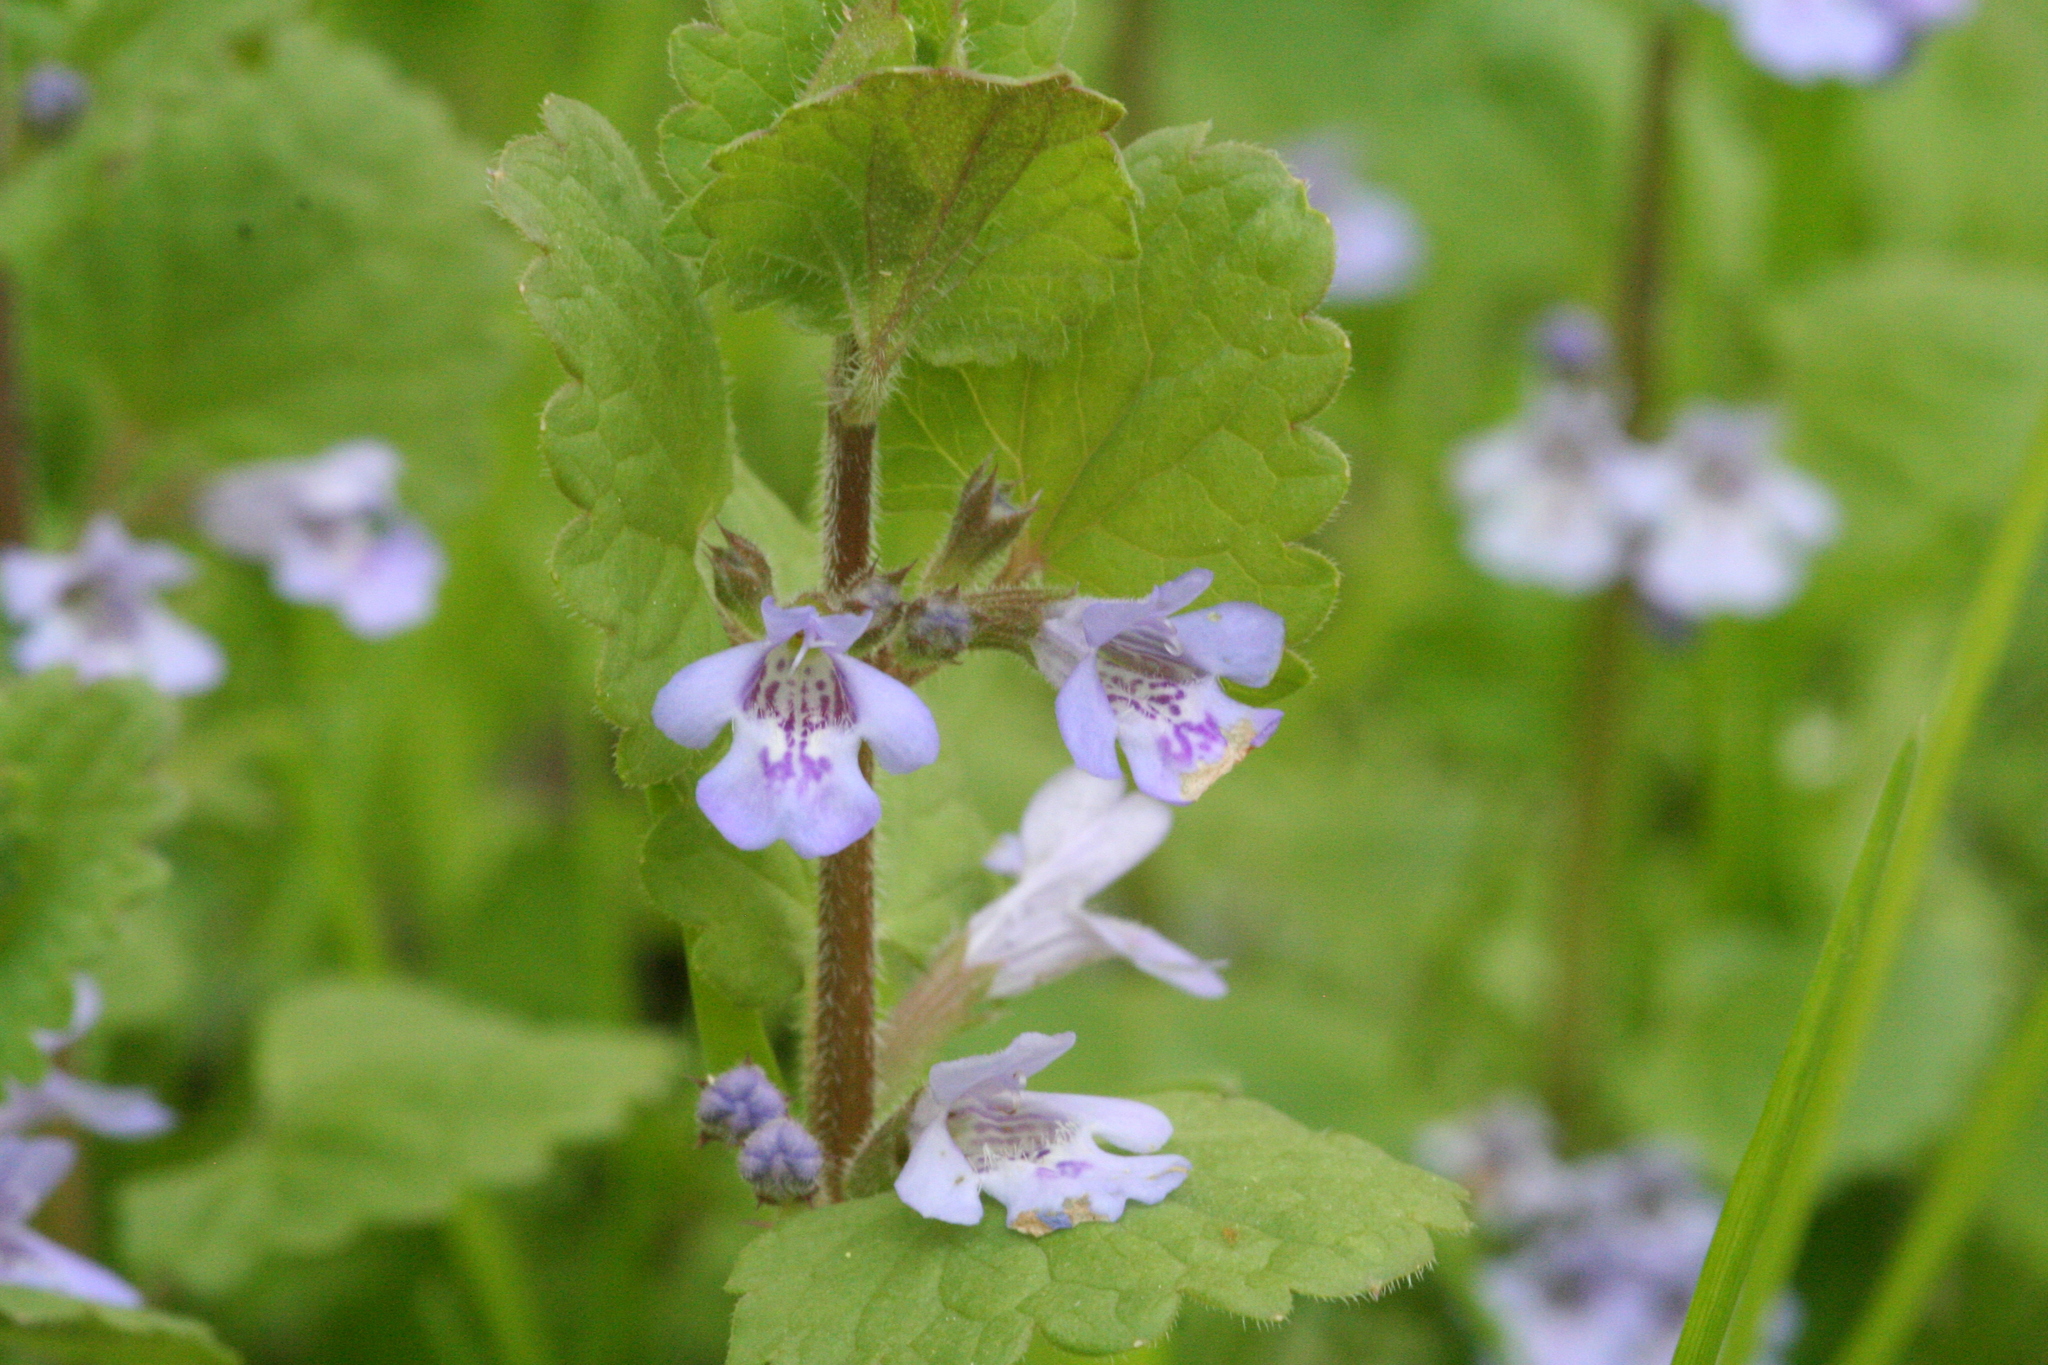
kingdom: Plantae
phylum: Tracheophyta
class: Magnoliopsida
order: Lamiales
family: Lamiaceae
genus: Glechoma
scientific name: Glechoma hederacea
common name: Ground ivy
